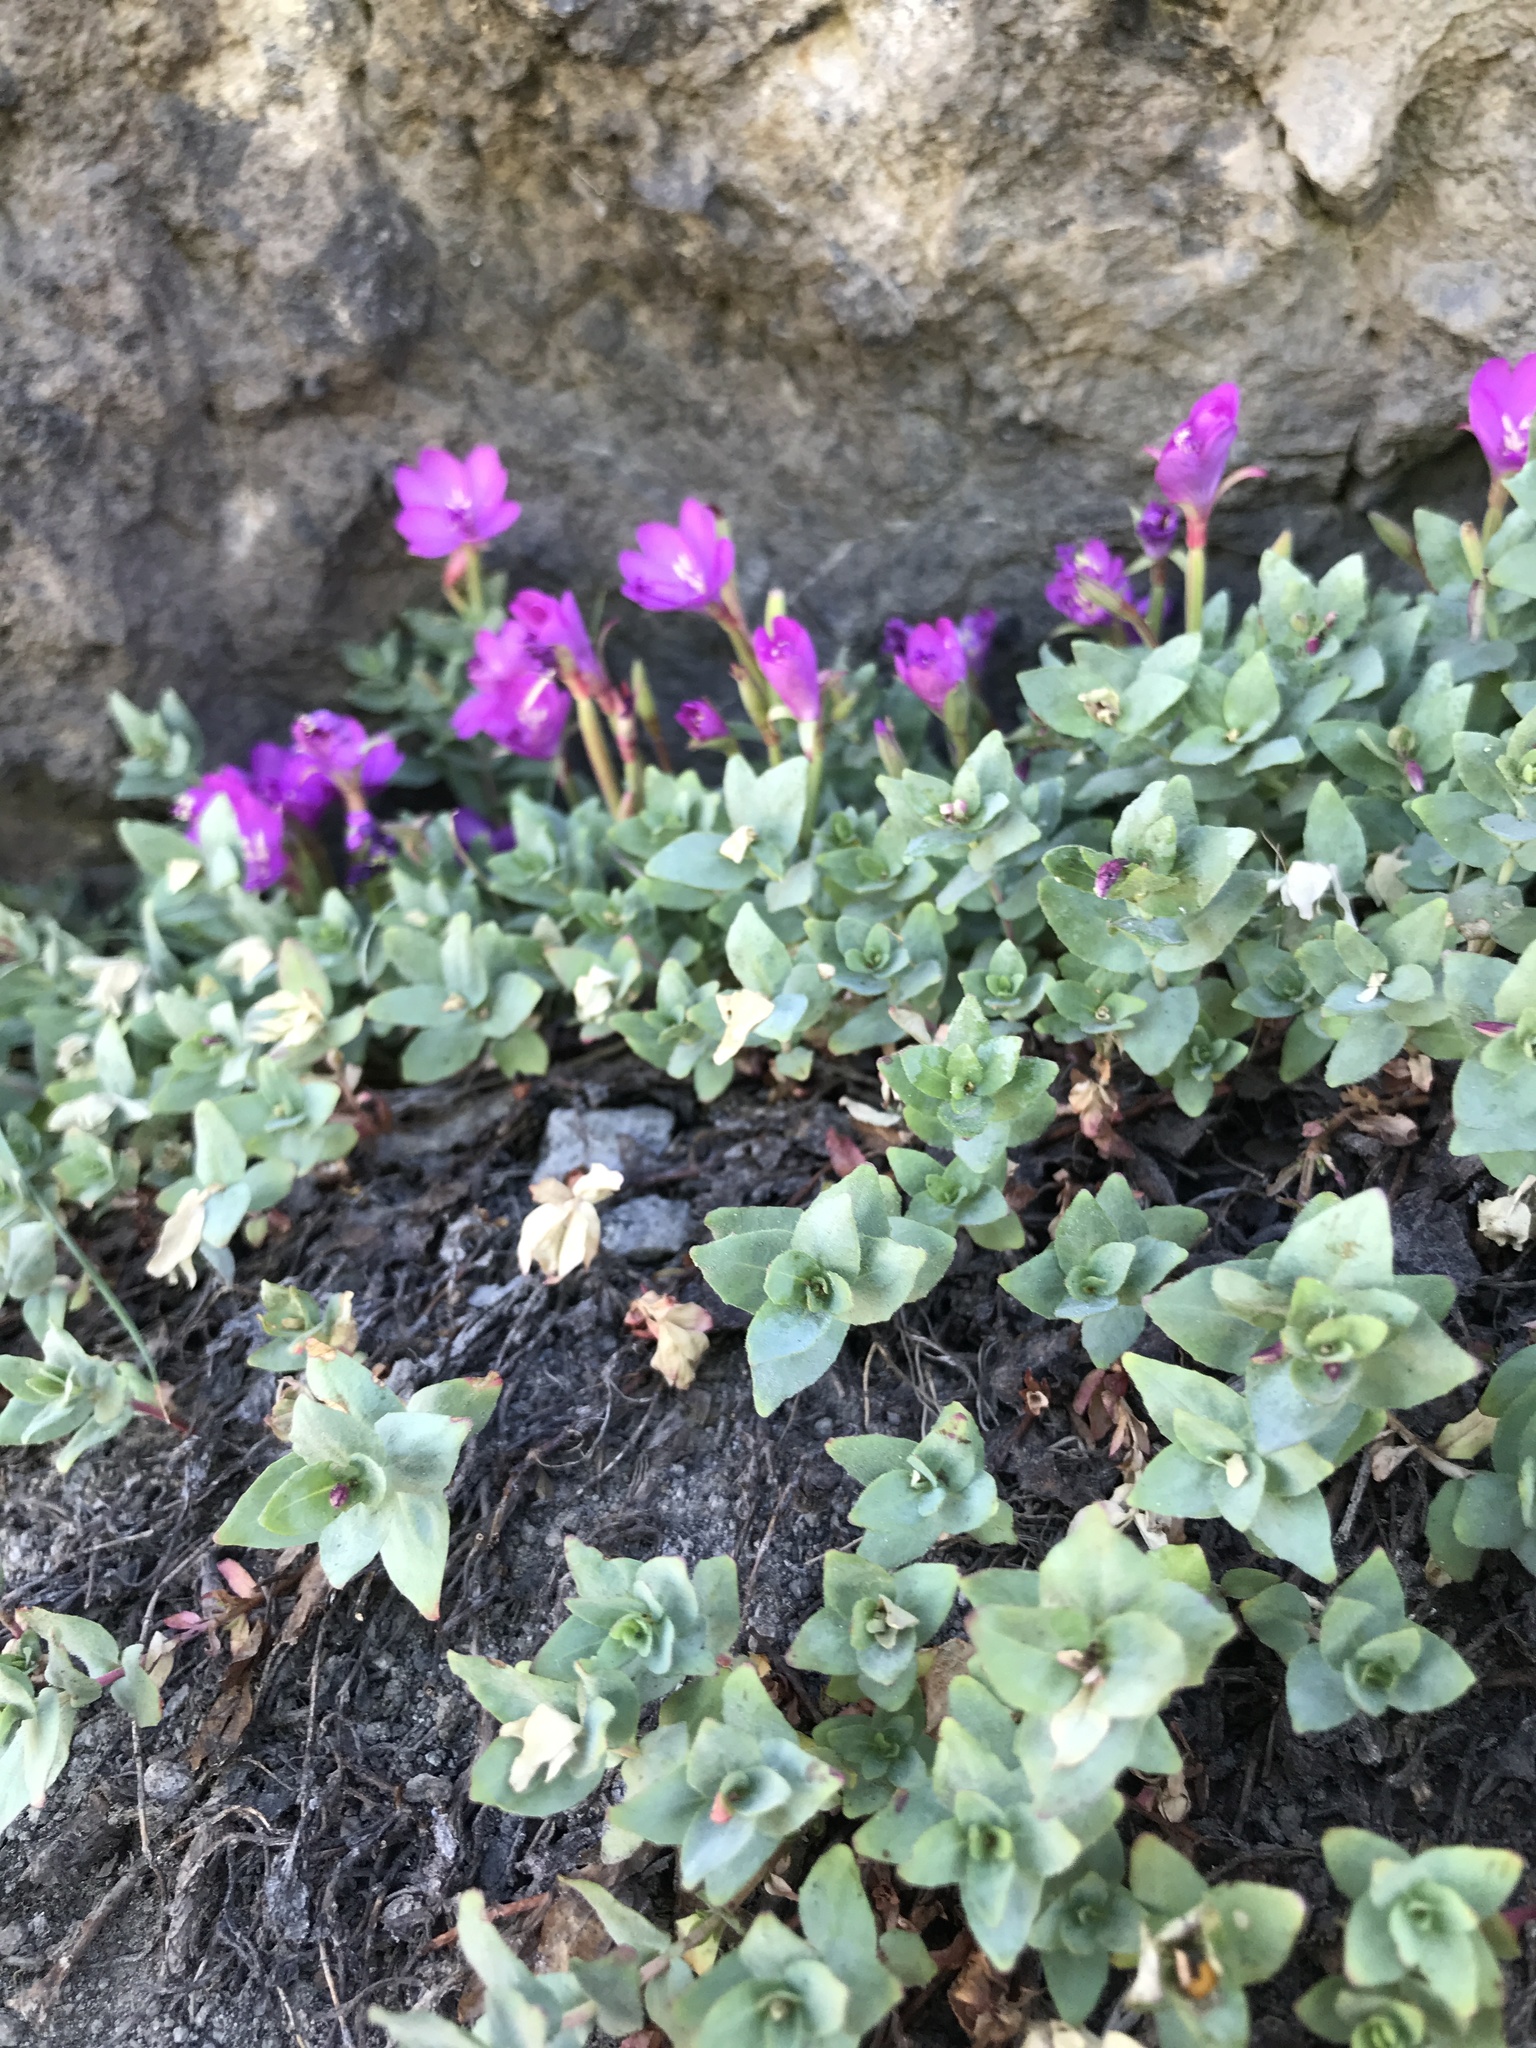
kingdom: Plantae
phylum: Tracheophyta
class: Magnoliopsida
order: Myrtales
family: Onagraceae
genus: Epilobium
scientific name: Epilobium obcordatum
